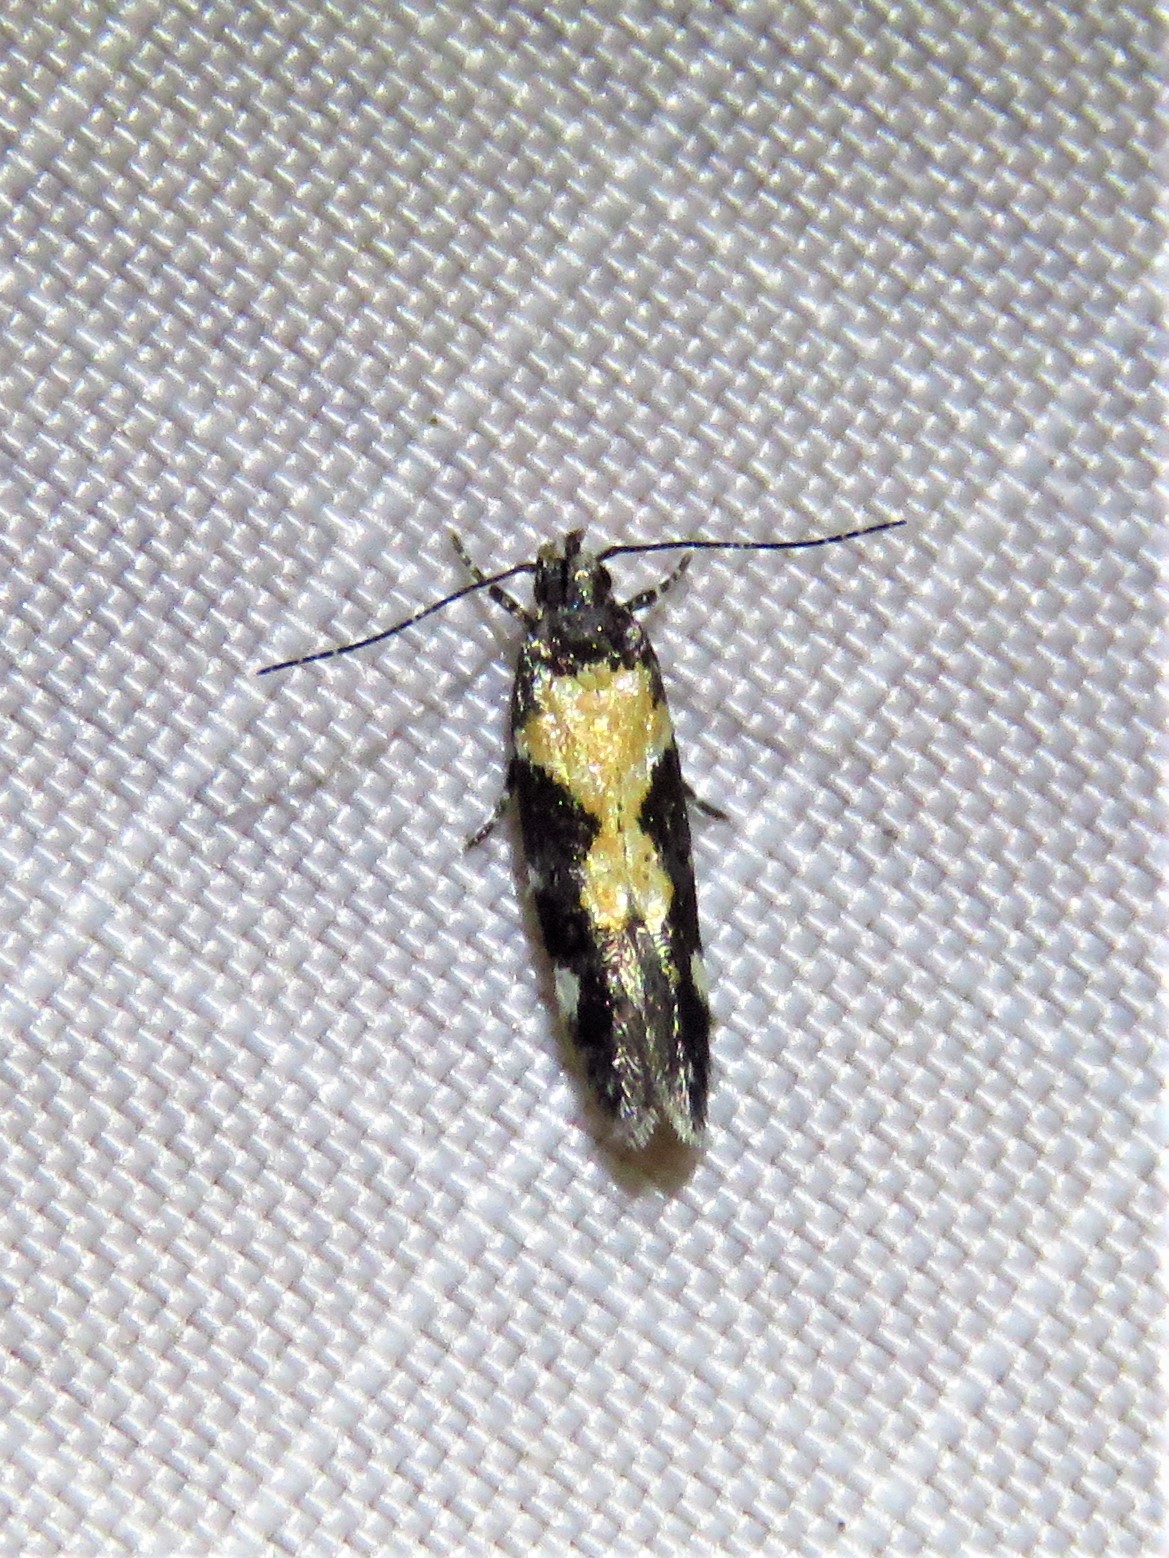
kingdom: Animalia
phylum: Arthropoda
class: Insecta
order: Lepidoptera
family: Gelechiidae
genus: Stegasta
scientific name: Stegasta bosqueella
